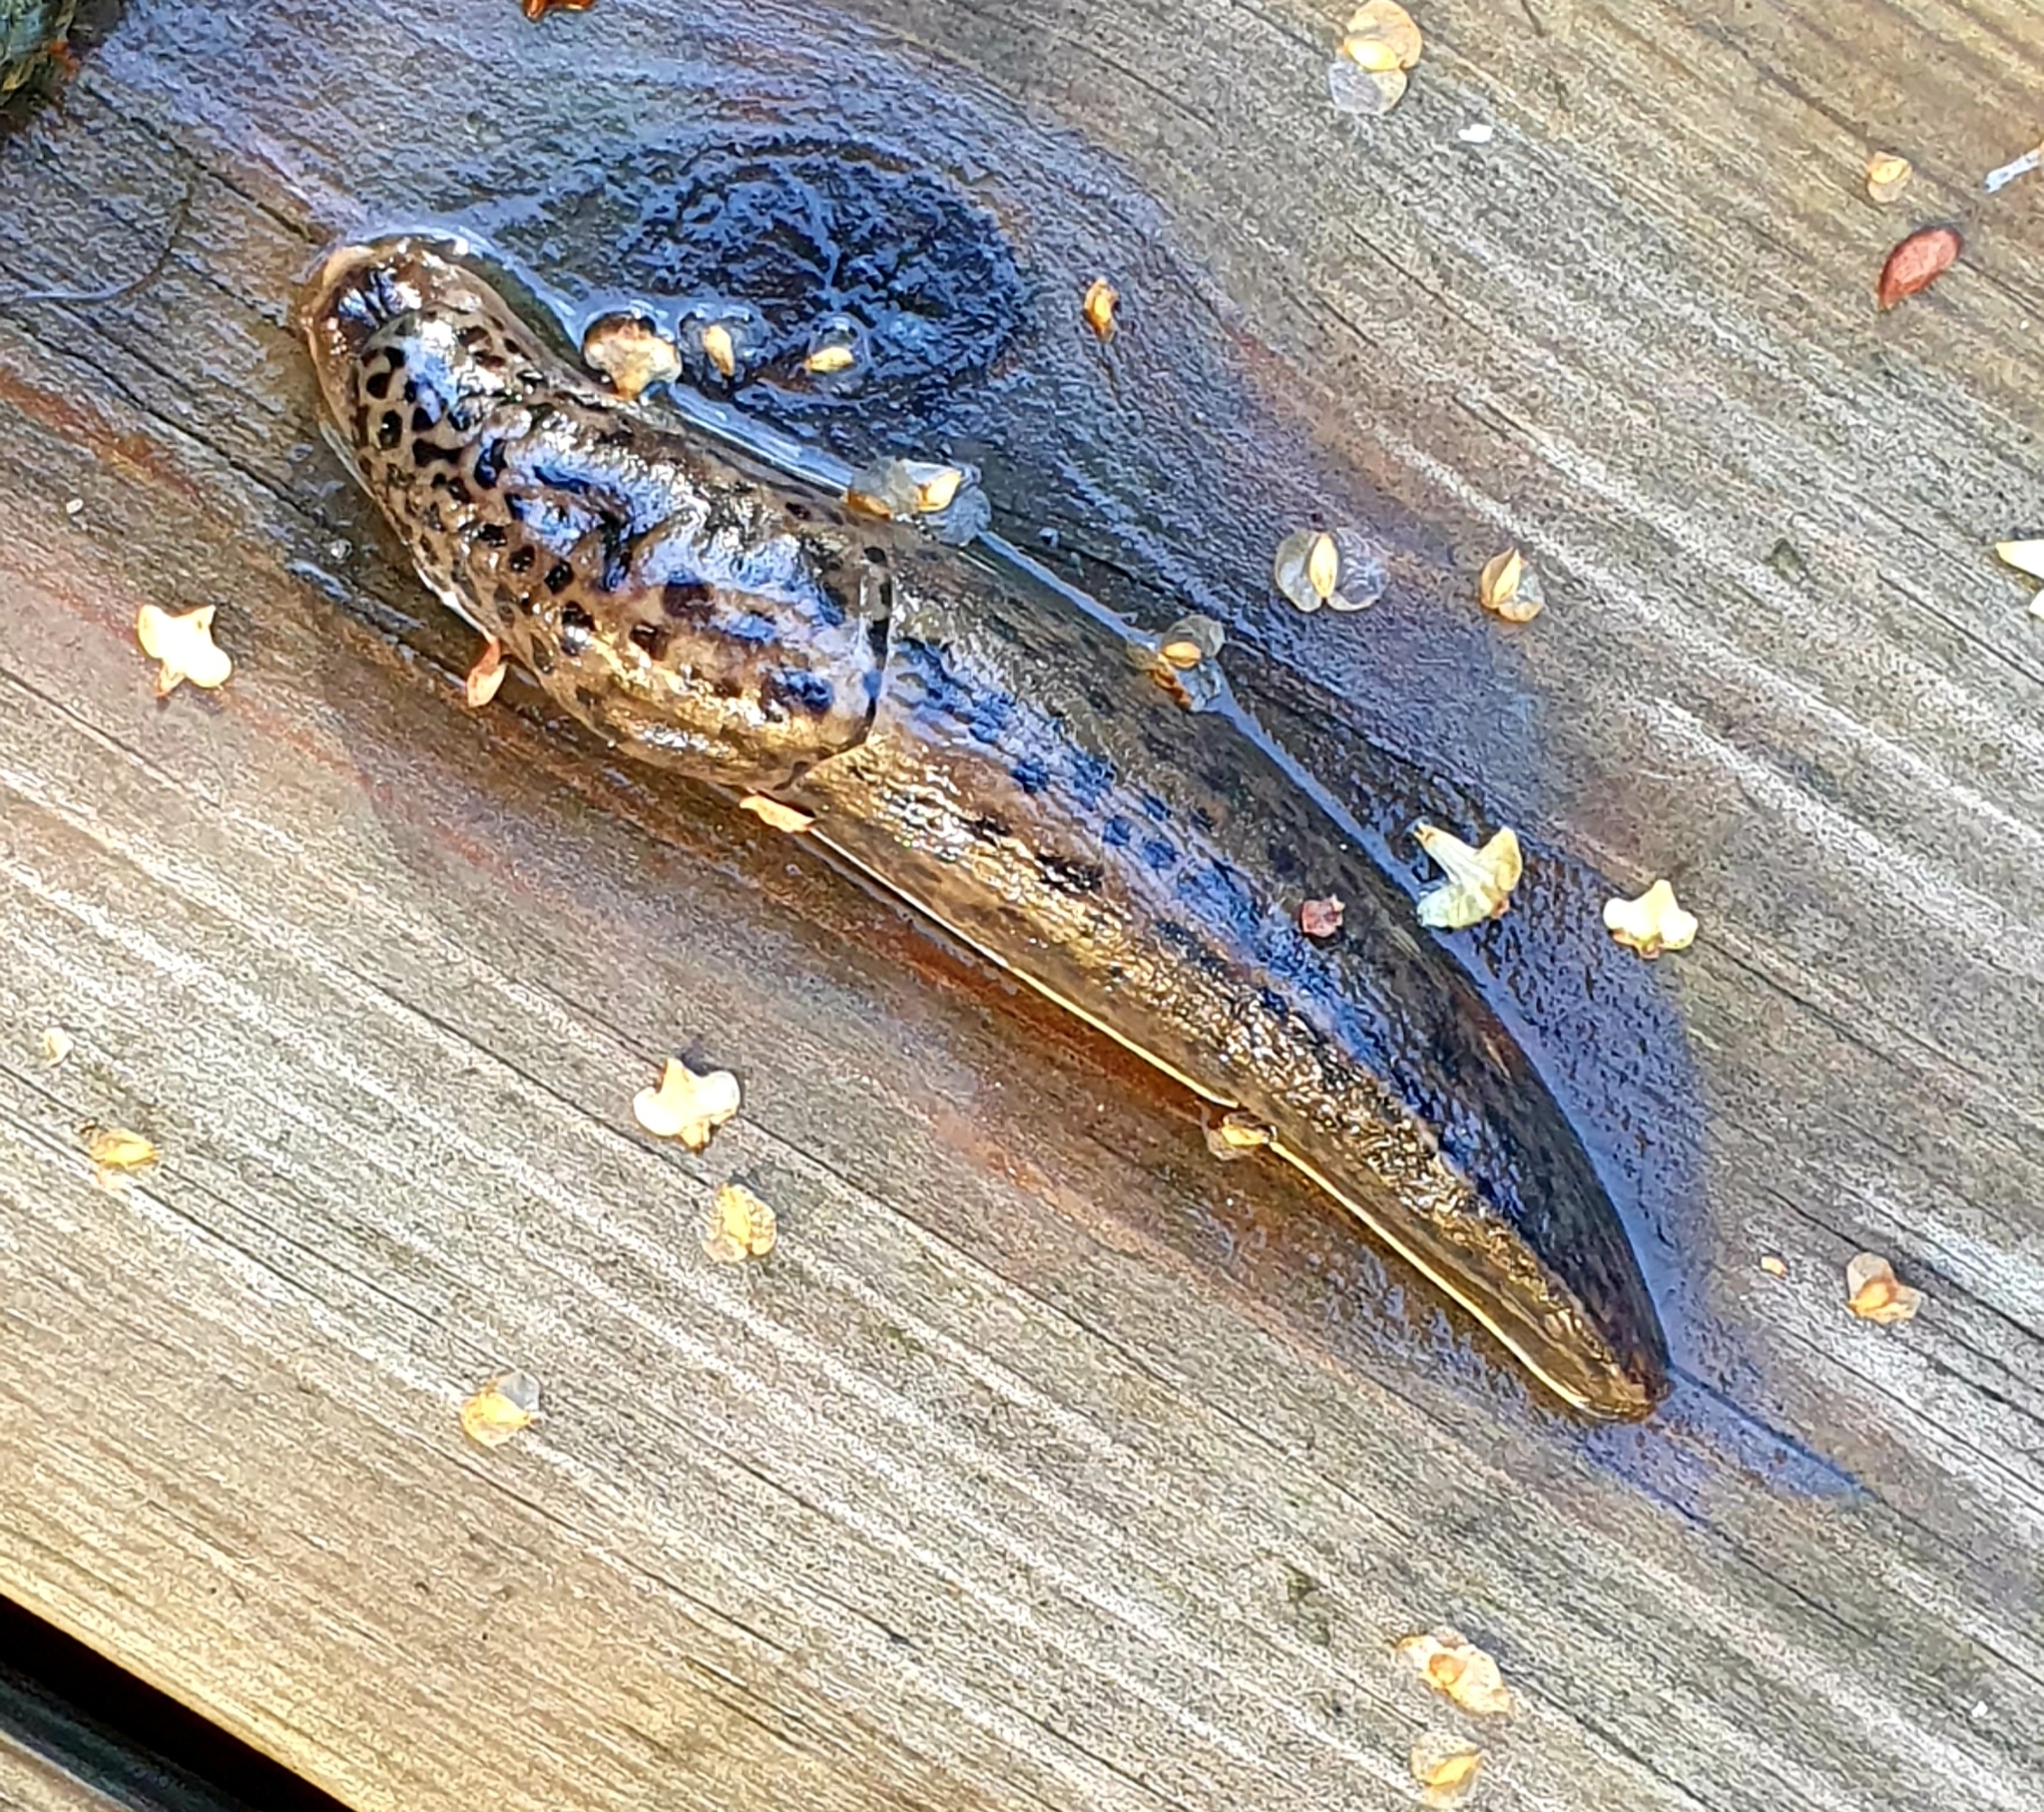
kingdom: Animalia
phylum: Mollusca
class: Gastropoda
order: Stylommatophora
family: Limacidae
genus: Limax
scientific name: Limax maximus
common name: Great grey slug
